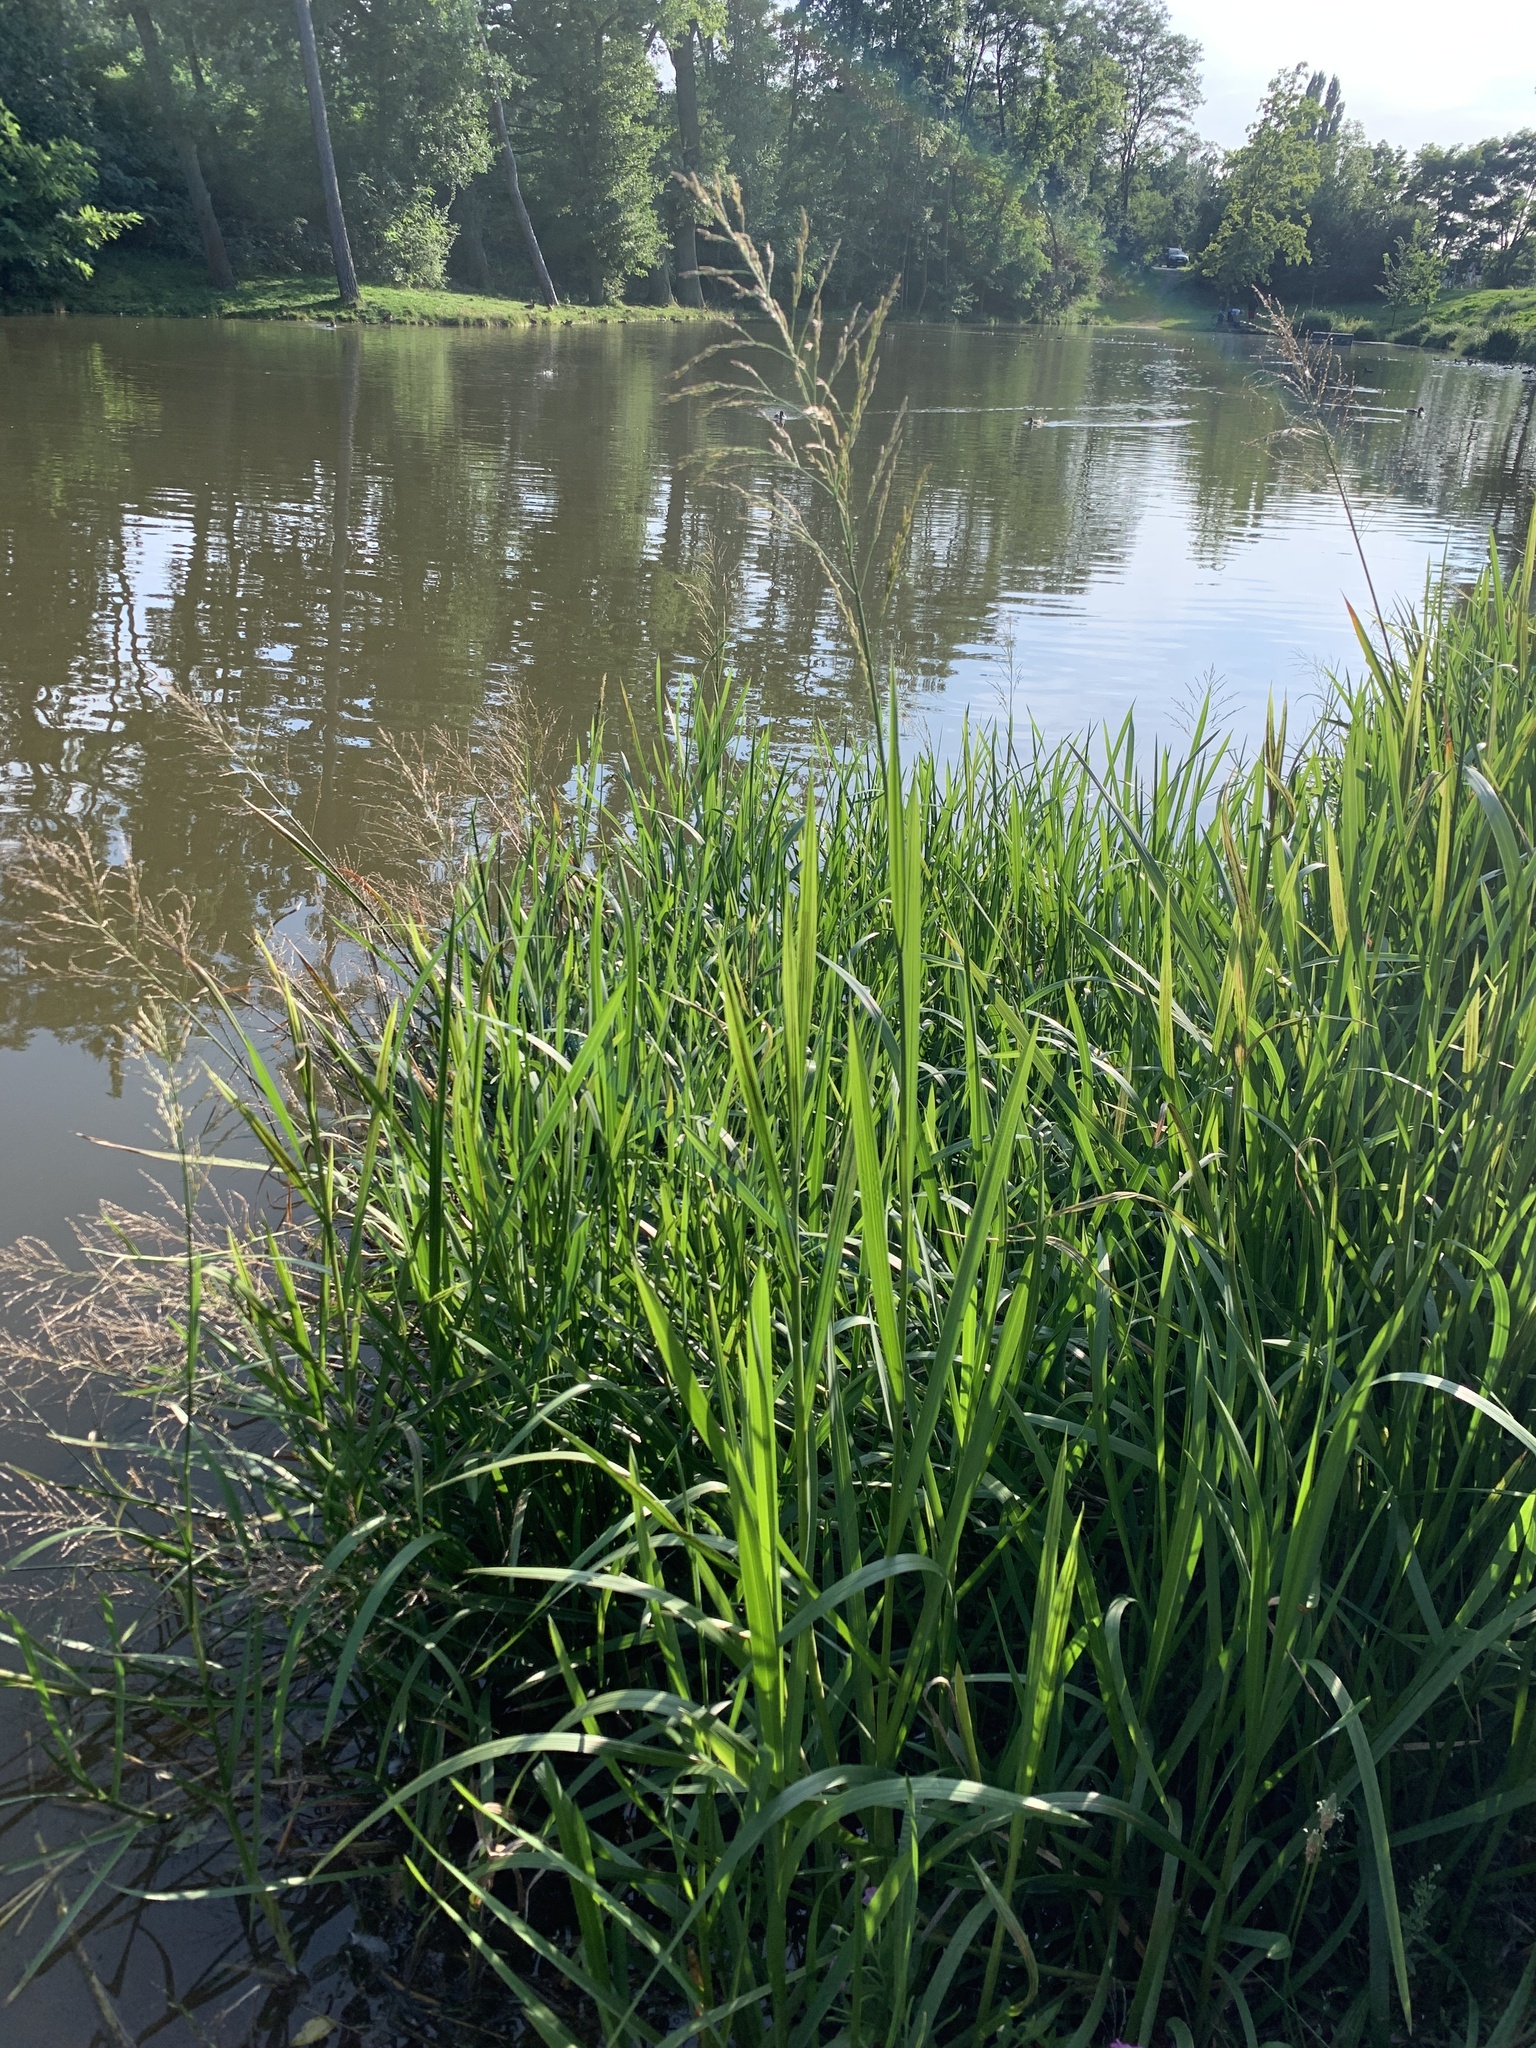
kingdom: Plantae
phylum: Tracheophyta
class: Liliopsida
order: Poales
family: Poaceae
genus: Glyceria
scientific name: Glyceria maxima
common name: Reed mannagrass
